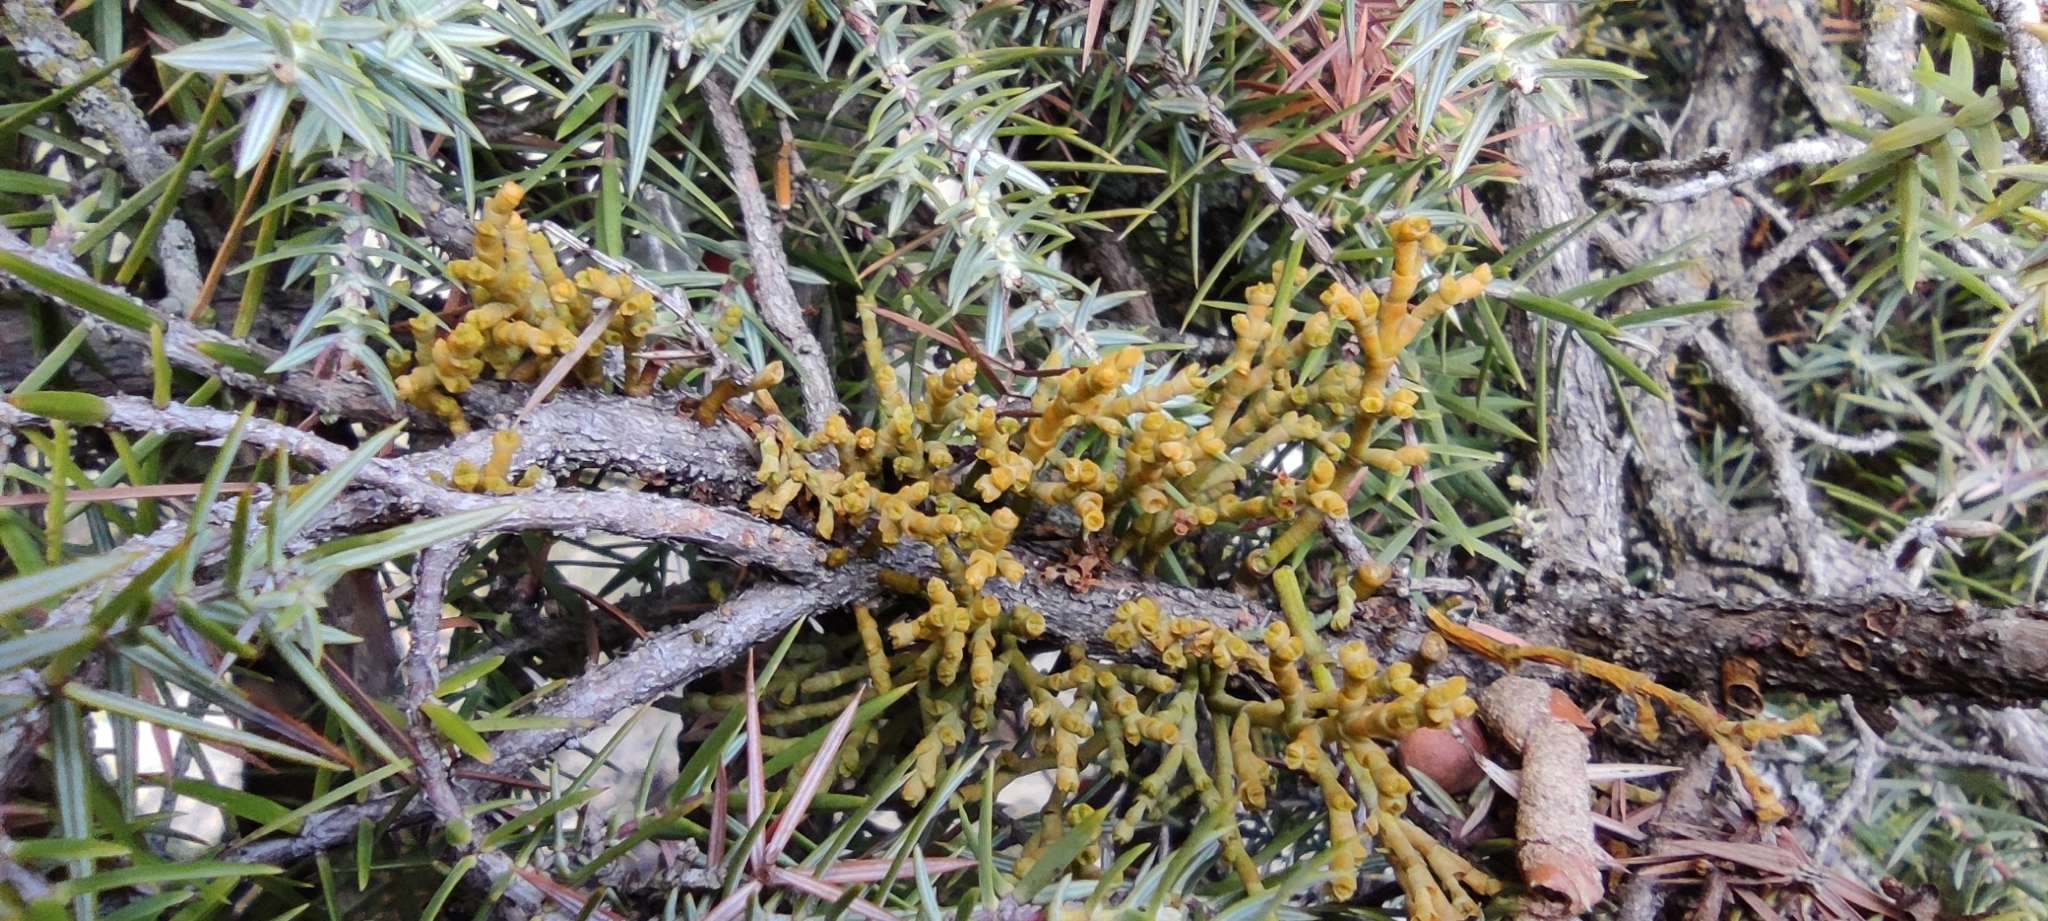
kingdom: Plantae
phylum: Tracheophyta
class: Magnoliopsida
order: Santalales
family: Viscaceae
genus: Arceuthobium
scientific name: Arceuthobium oxycedri
